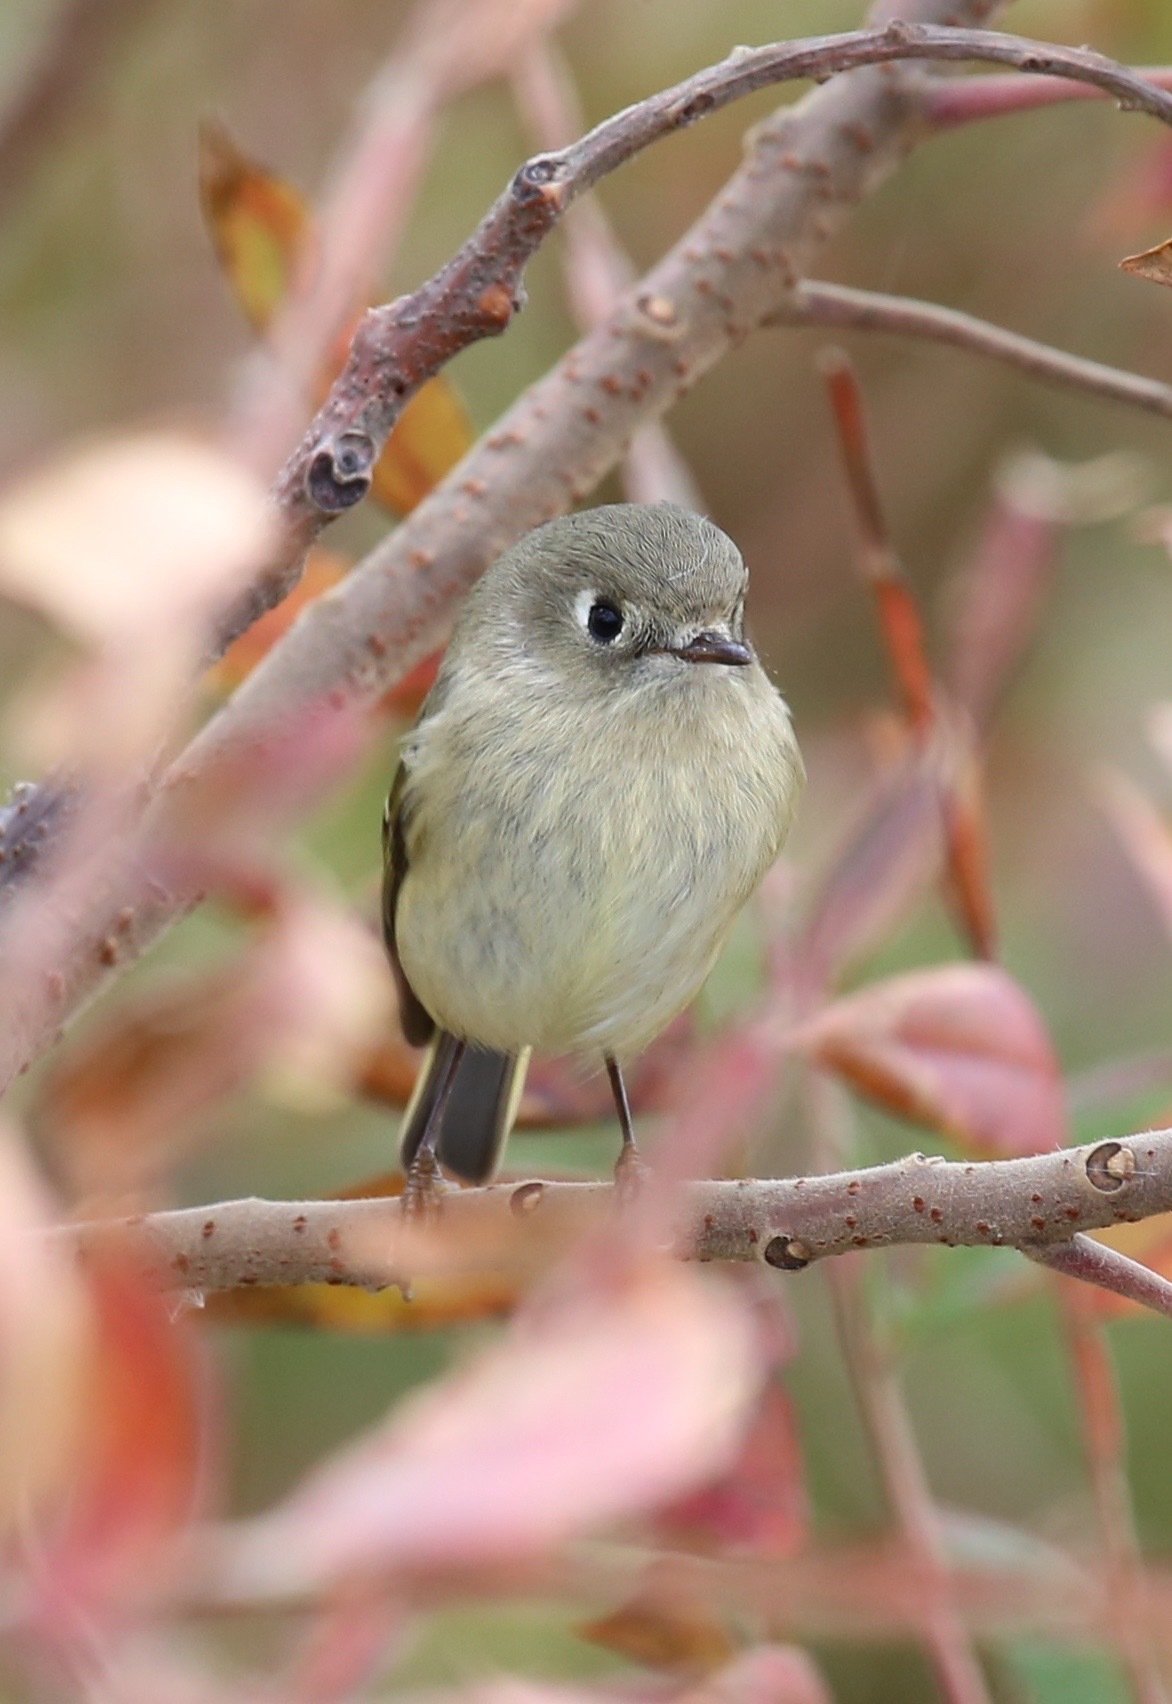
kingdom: Animalia
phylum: Chordata
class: Aves
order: Passeriformes
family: Regulidae
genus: Regulus
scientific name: Regulus calendula
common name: Ruby-crowned kinglet
